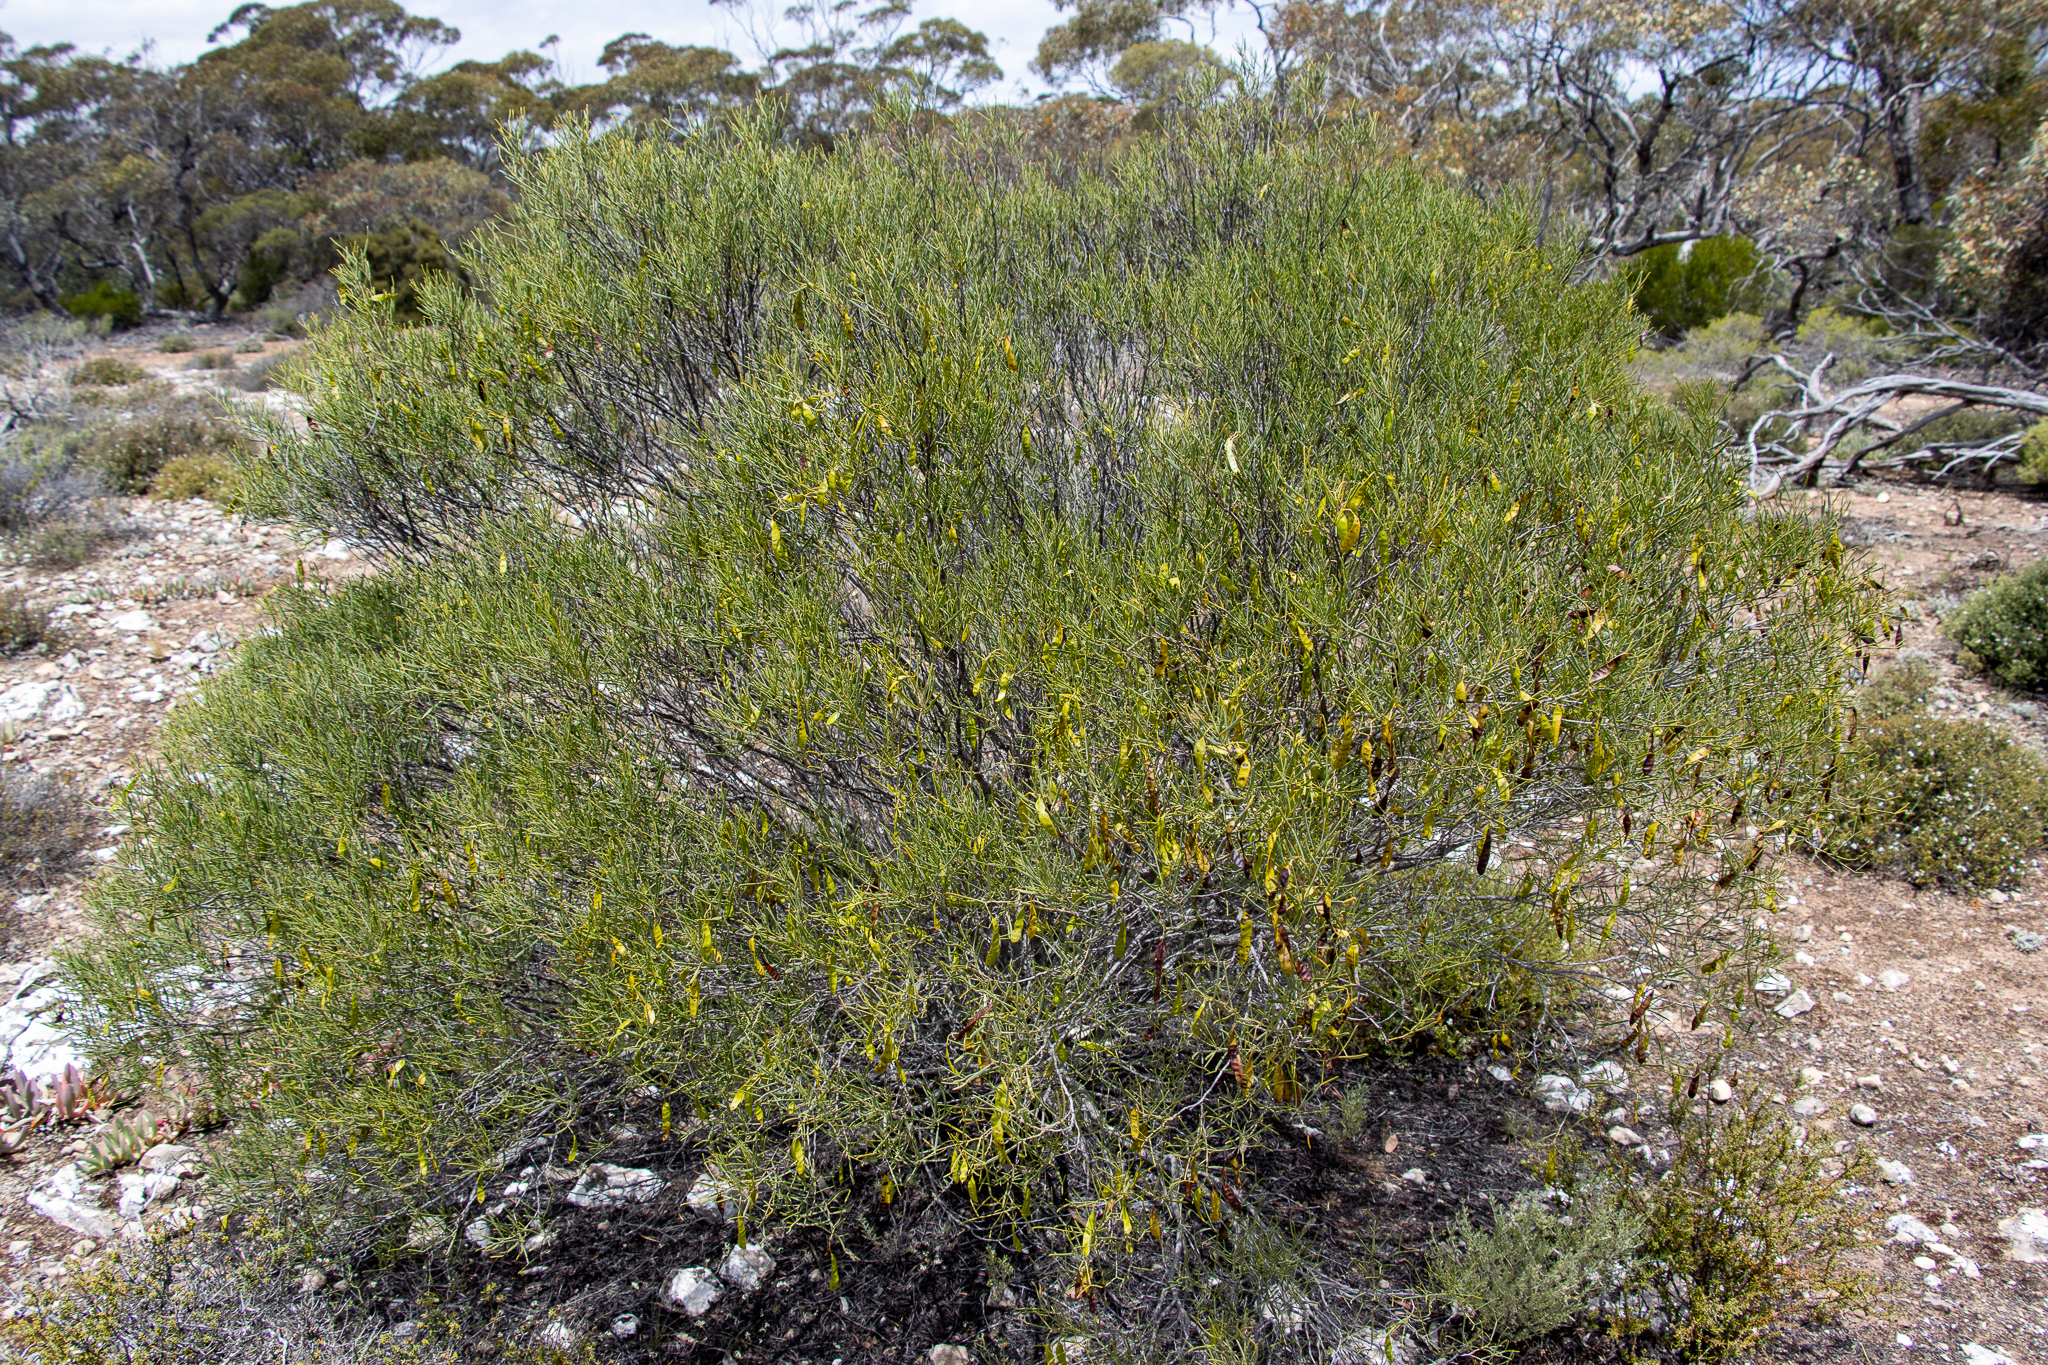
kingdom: Plantae
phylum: Tracheophyta
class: Magnoliopsida
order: Fabales
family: Fabaceae
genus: Senna
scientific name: Senna artemisioides
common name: Burnt-leaved acacia
